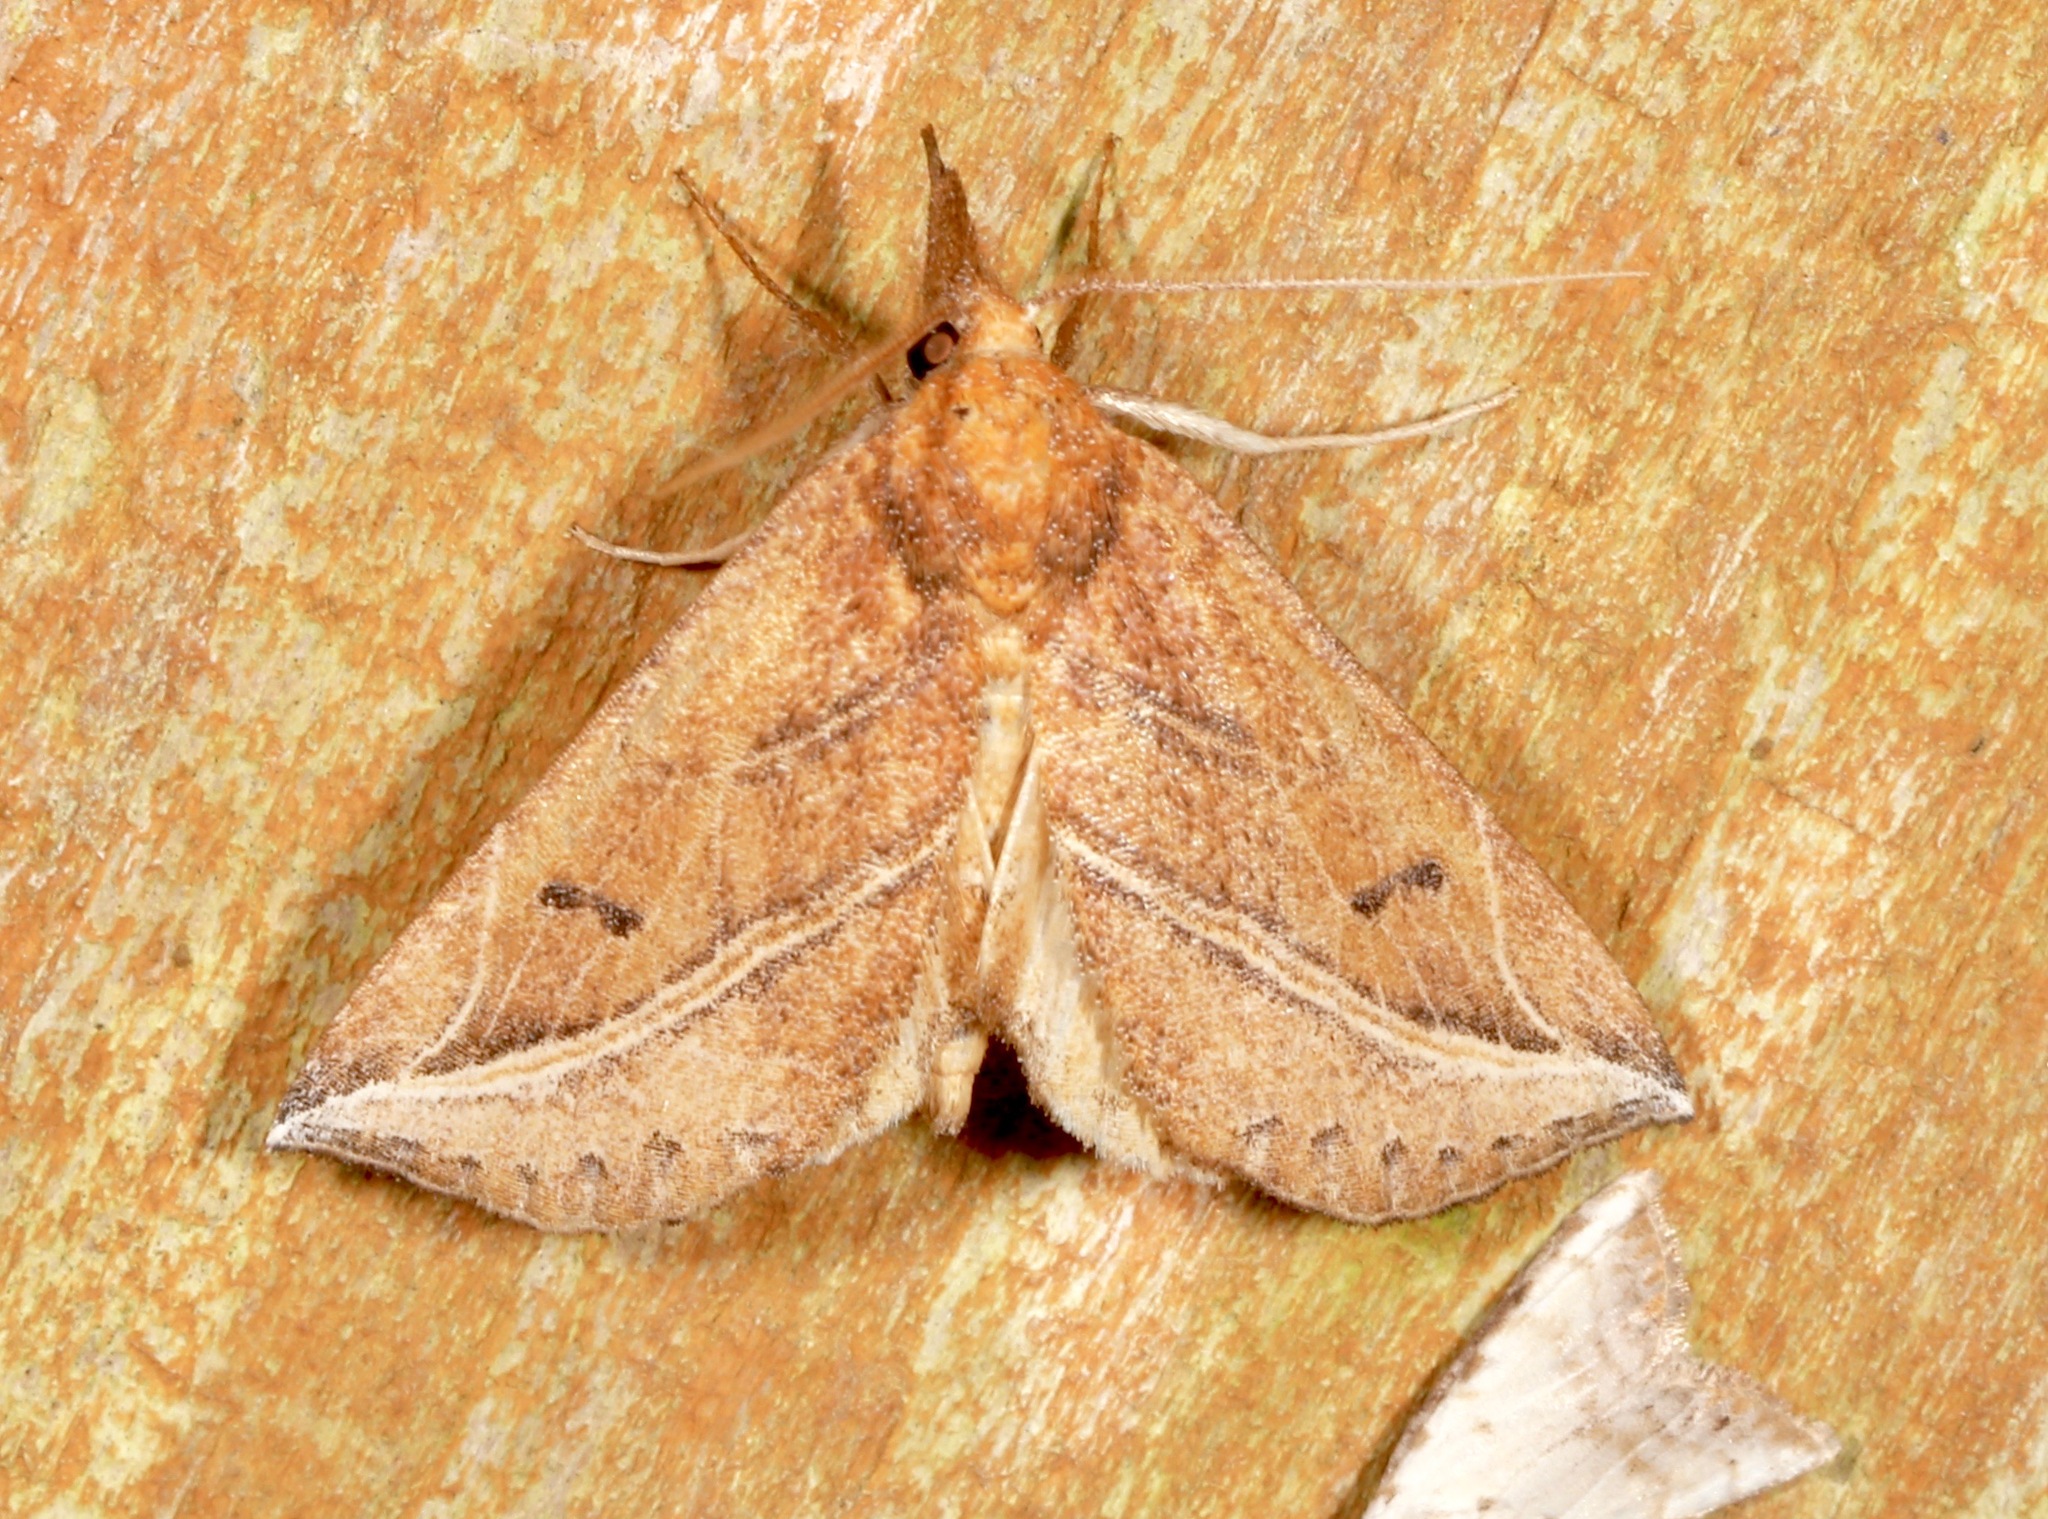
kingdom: Animalia
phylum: Arthropoda
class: Insecta
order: Lepidoptera
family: Erebidae
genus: Phyprosopus
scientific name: Phyprosopus callitrichoides
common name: Curved-lined owlet
